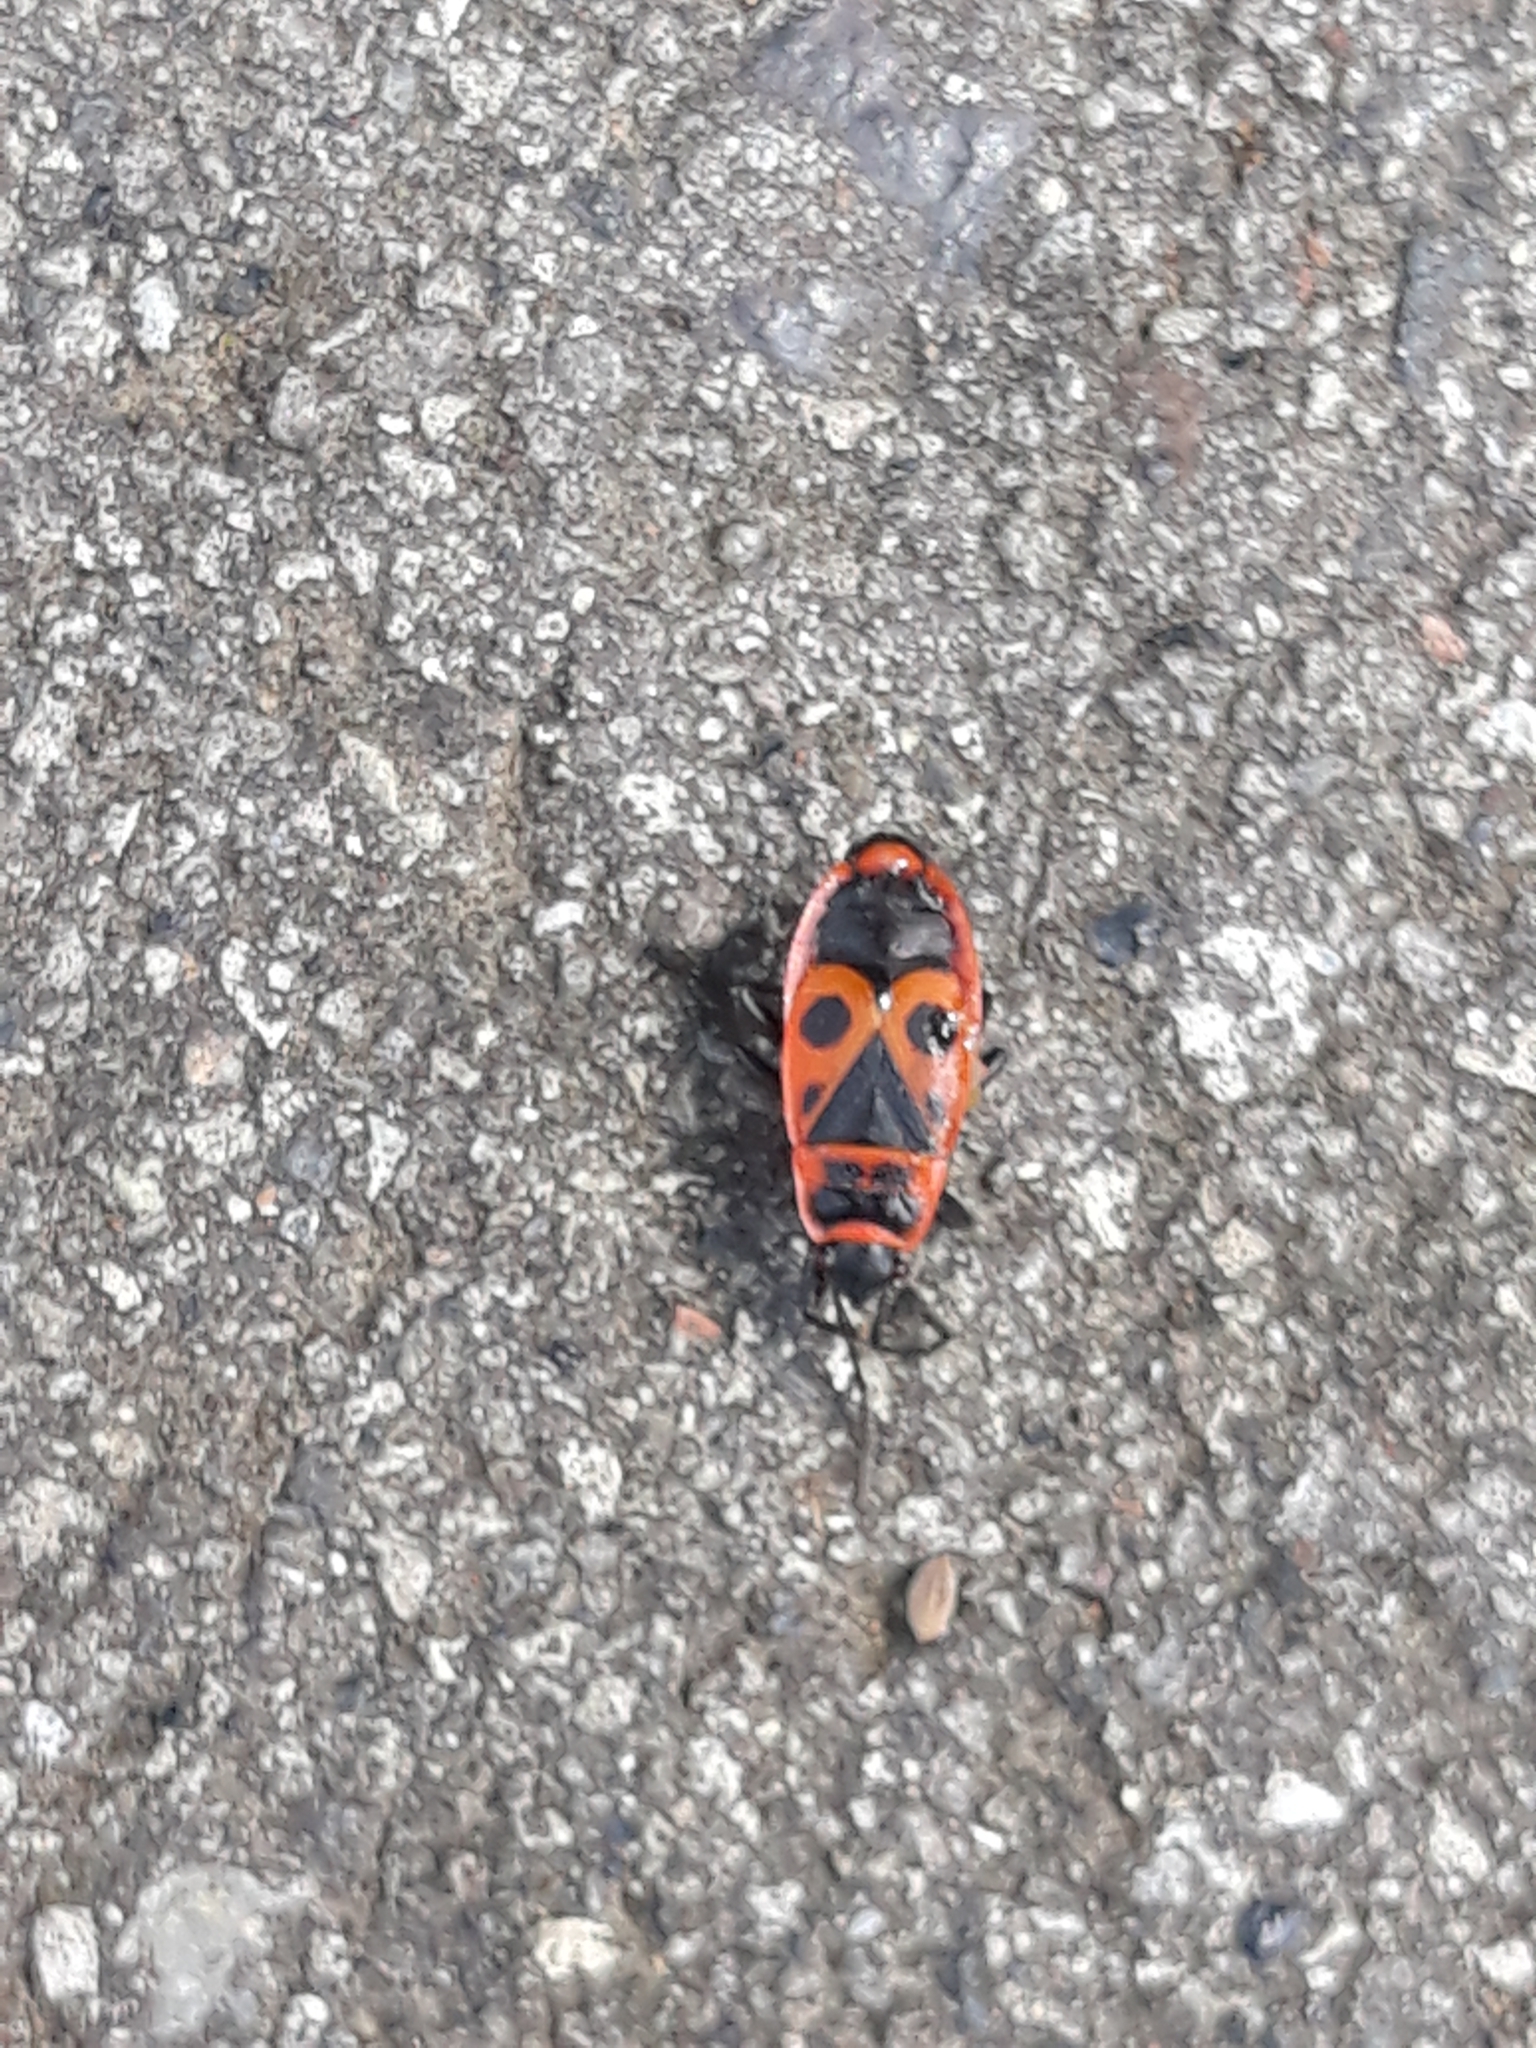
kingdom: Animalia
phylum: Arthropoda
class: Insecta
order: Hemiptera
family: Pyrrhocoridae
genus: Pyrrhocoris
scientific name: Pyrrhocoris apterus
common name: Firebug
